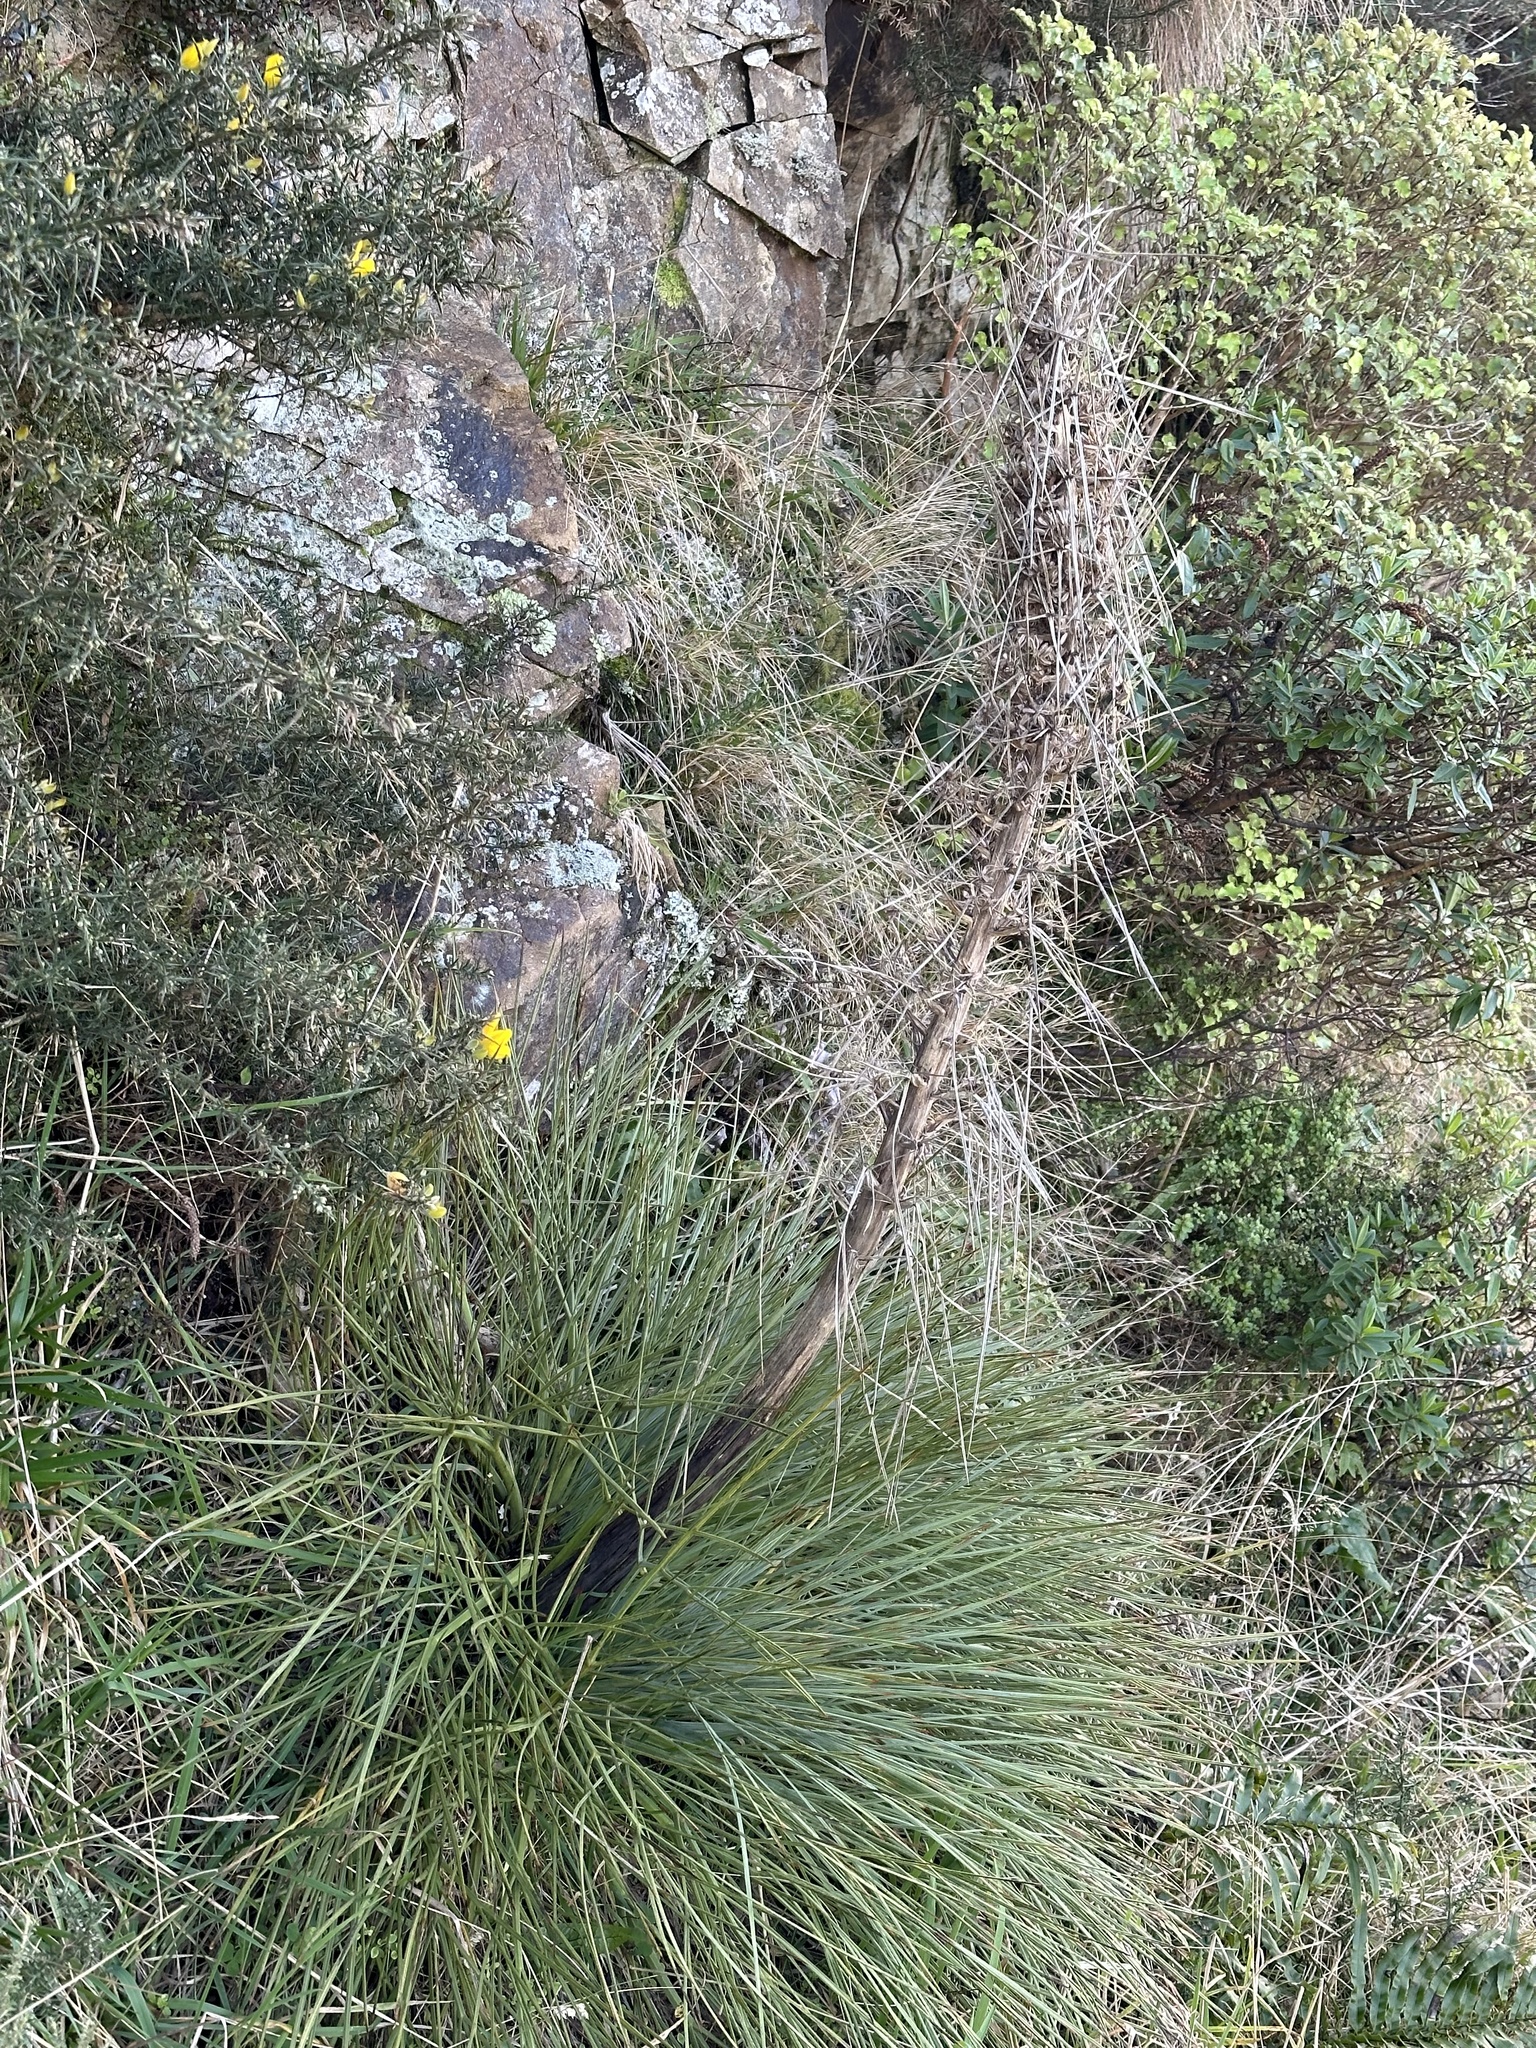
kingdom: Plantae
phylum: Tracheophyta
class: Magnoliopsida
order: Apiales
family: Apiaceae
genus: Aciphylla
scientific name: Aciphylla squarrosa
